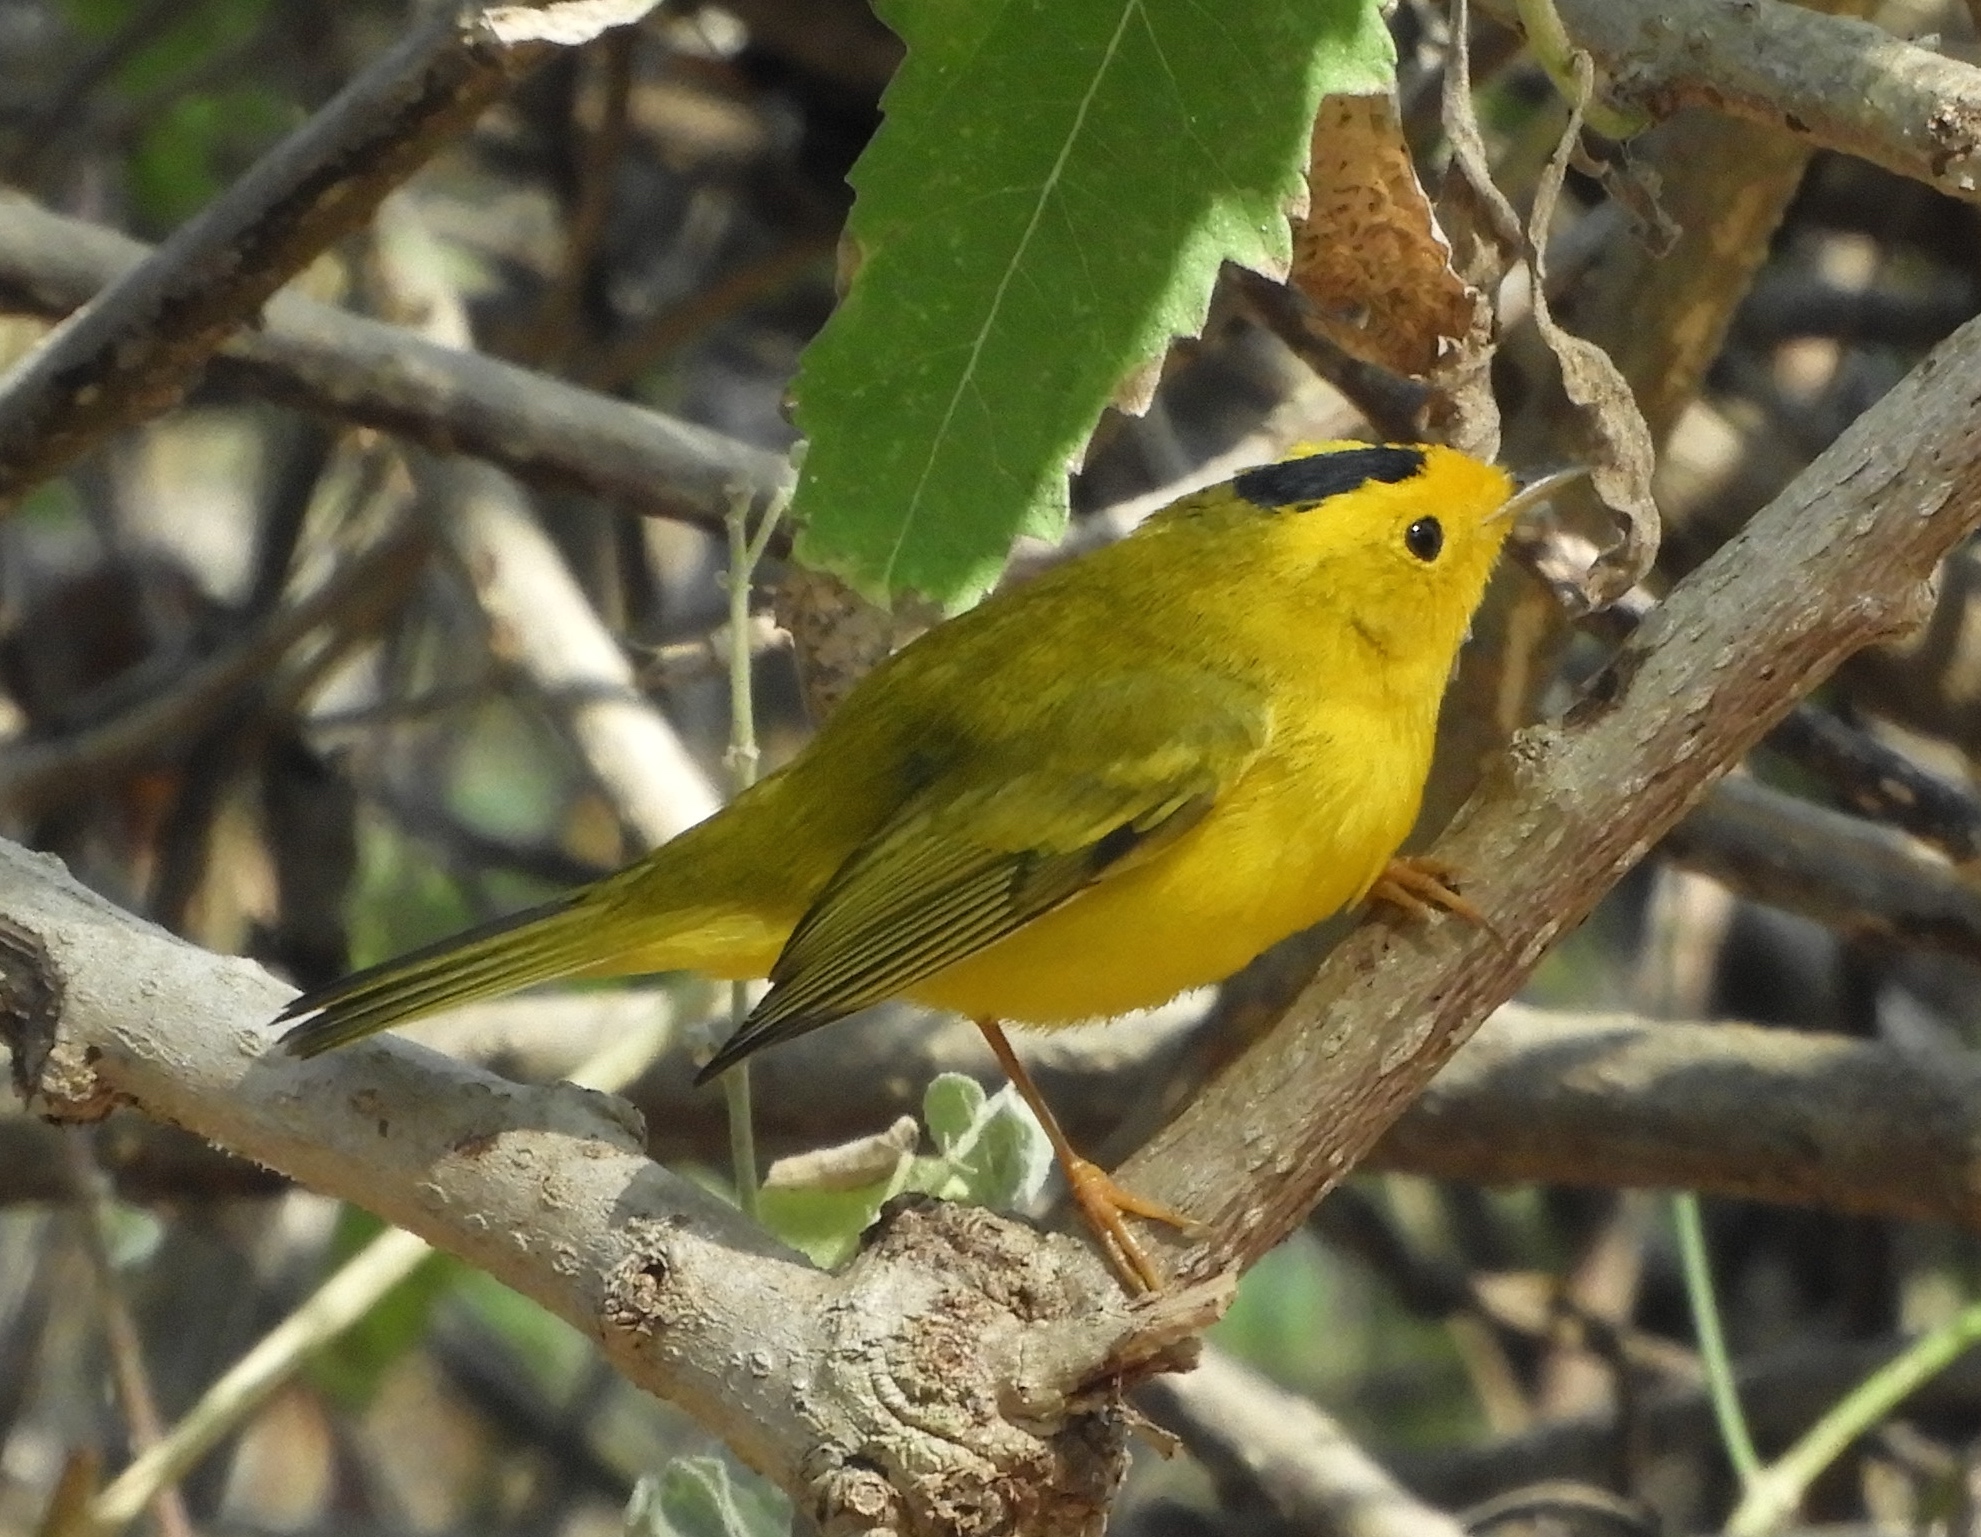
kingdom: Animalia
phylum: Chordata
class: Aves
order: Passeriformes
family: Parulidae
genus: Cardellina
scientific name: Cardellina pusilla
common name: Wilson's warbler
